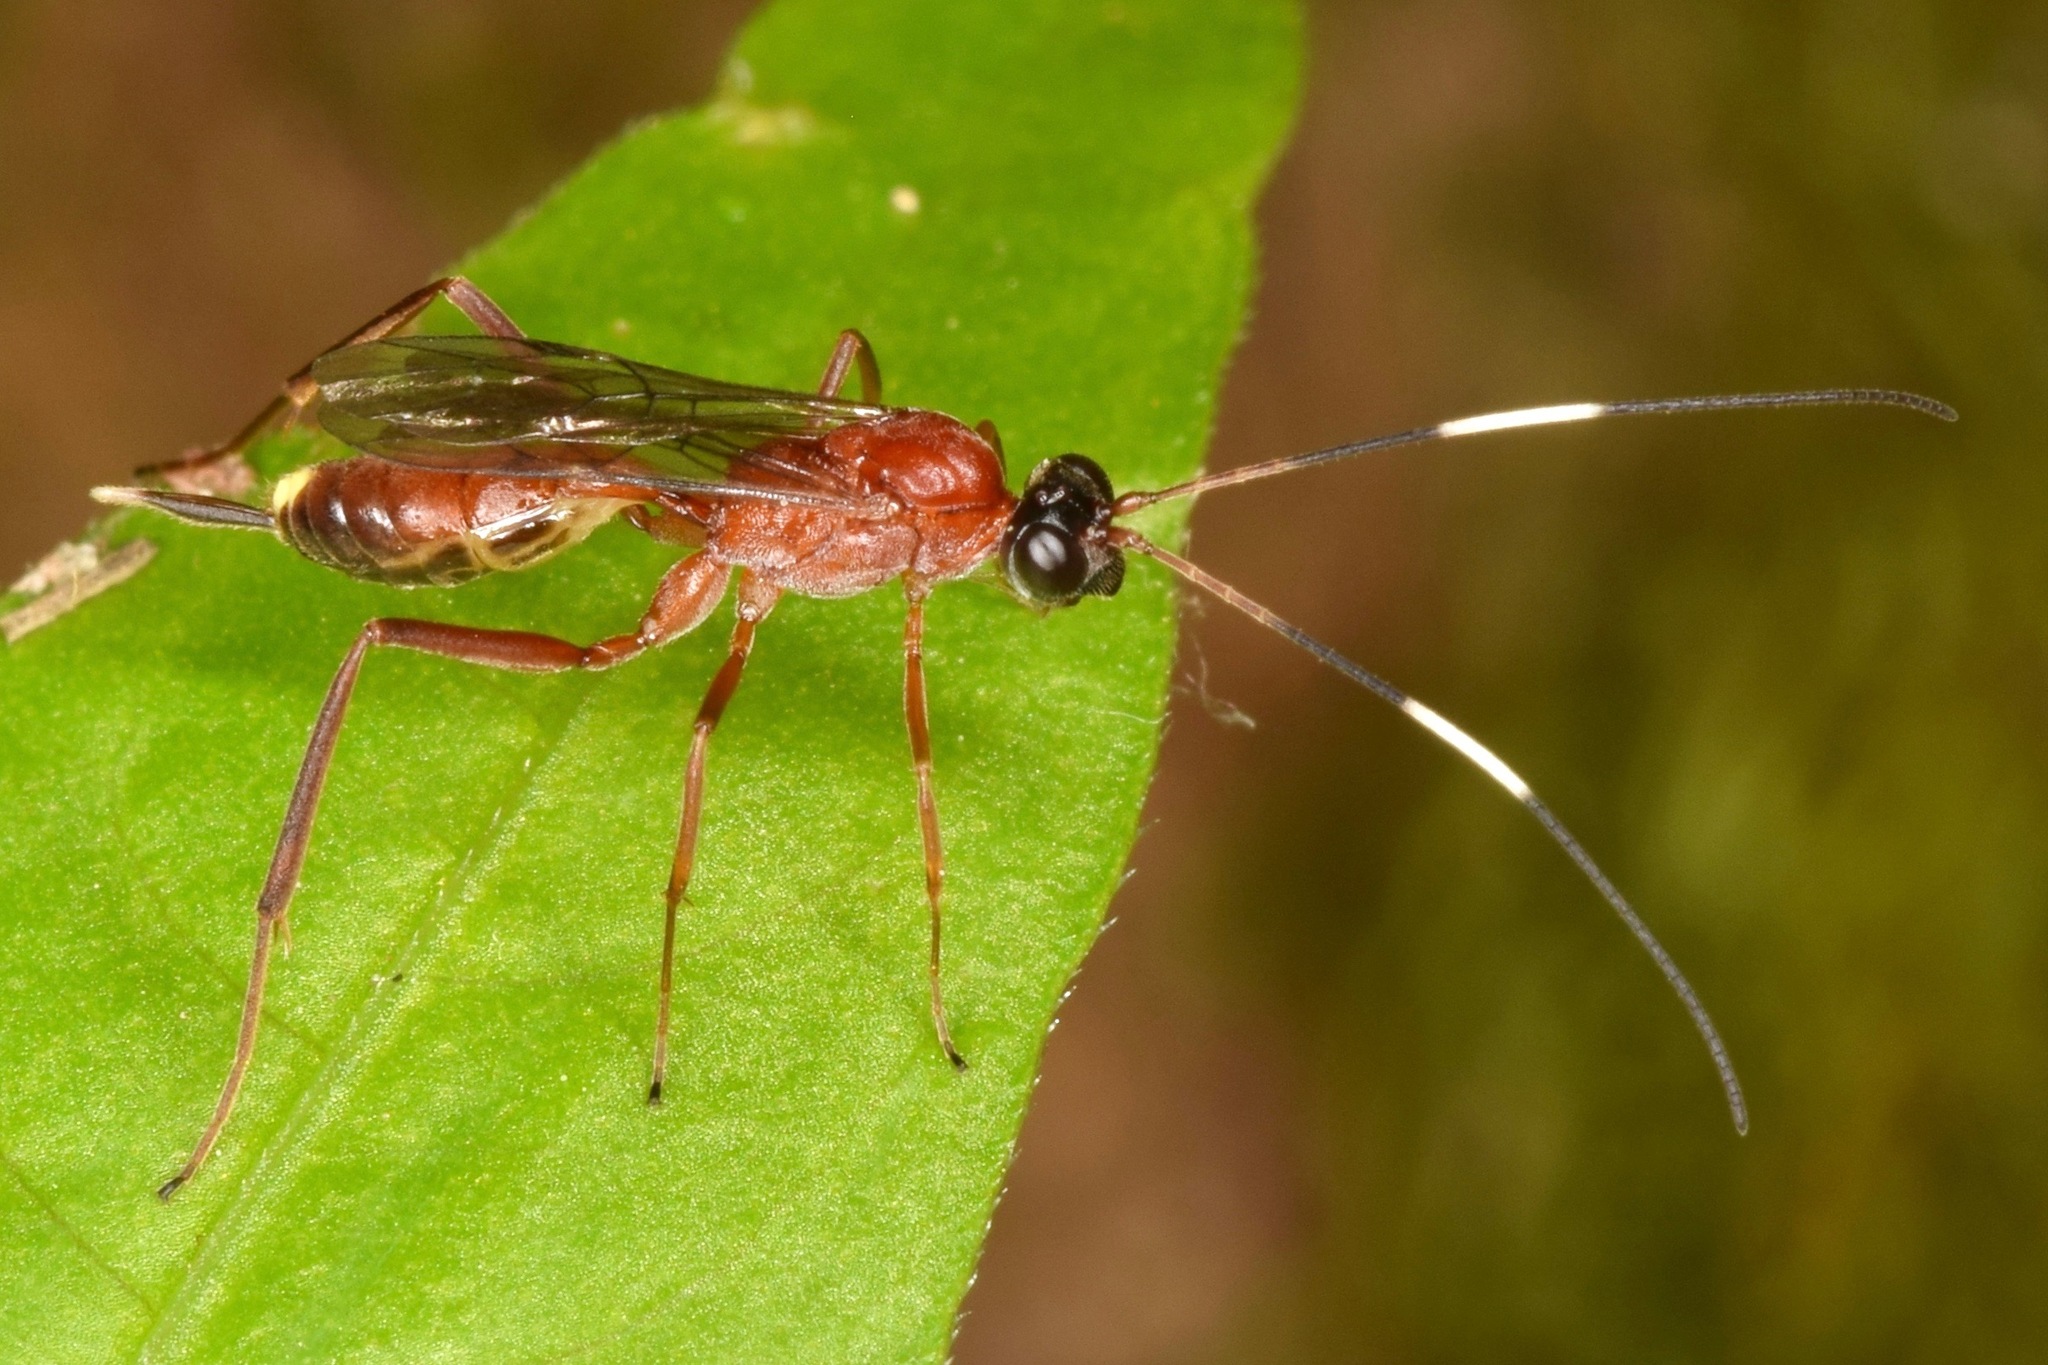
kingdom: Animalia
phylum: Arthropoda
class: Insecta
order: Hymenoptera
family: Ichneumonidae
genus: Zagryphus
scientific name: Zagryphus nasutus
